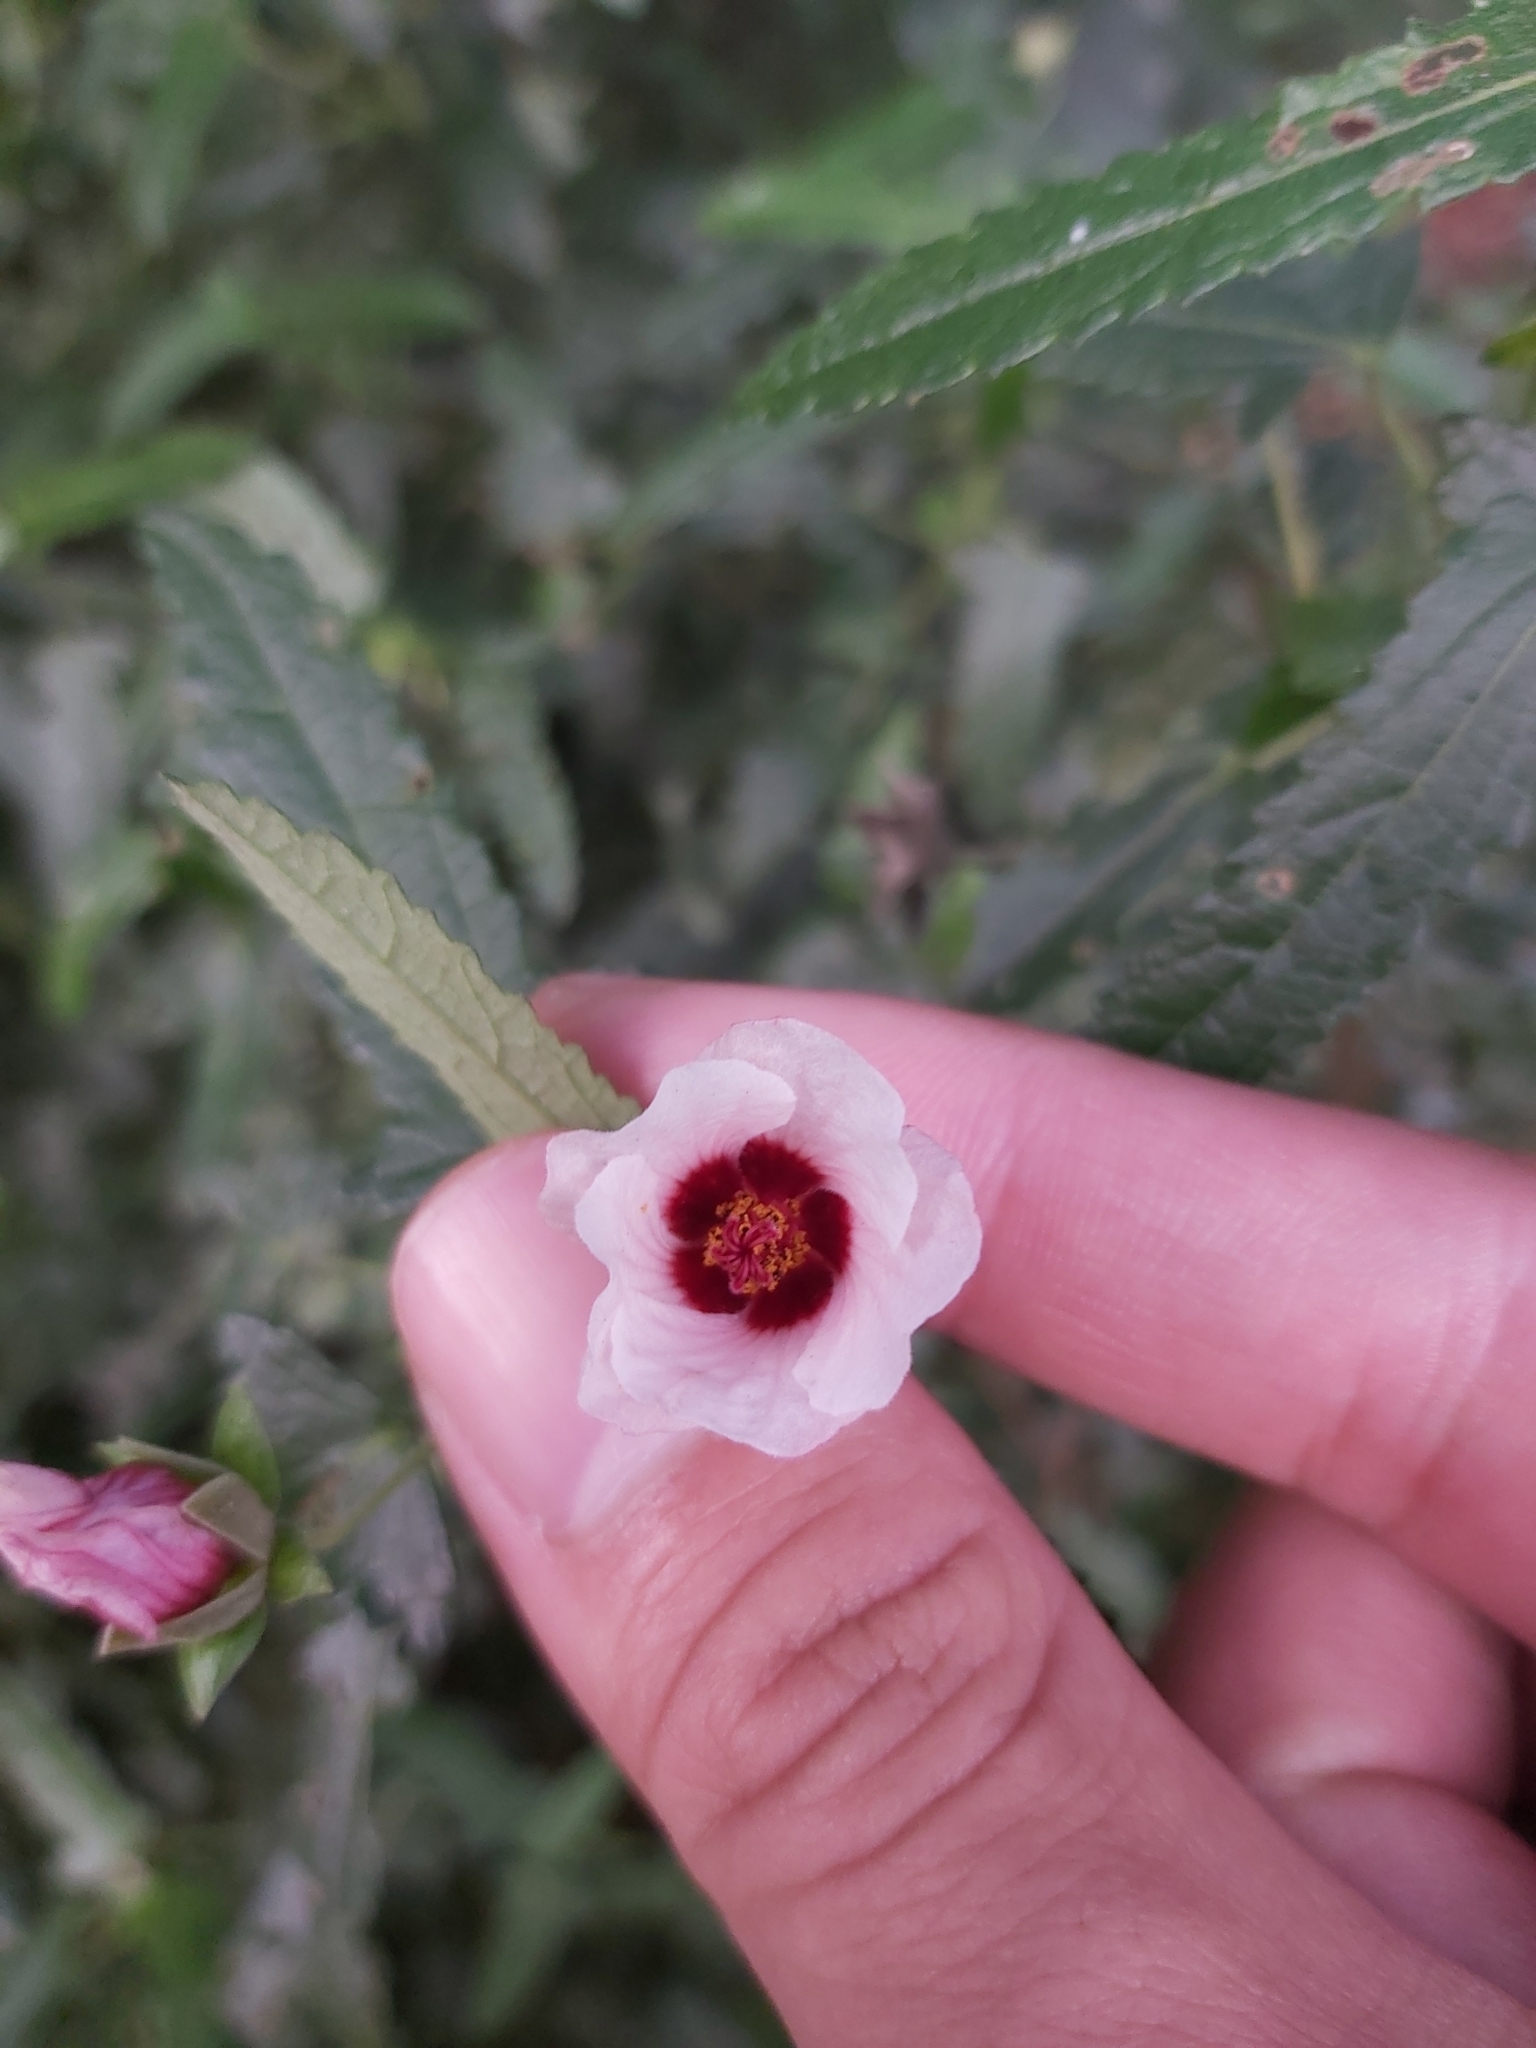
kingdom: Plantae
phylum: Tracheophyta
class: Magnoliopsida
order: Malvales
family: Malvaceae
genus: Pavonia
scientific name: Pavonia hastata
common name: Spearleaf swampmallow
